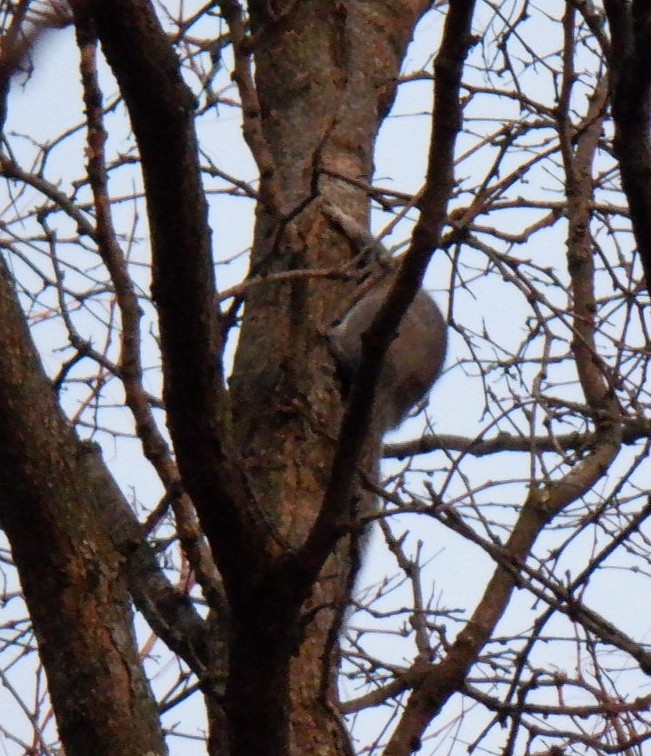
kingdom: Animalia
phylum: Chordata
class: Mammalia
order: Rodentia
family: Sciuridae
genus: Sciurus
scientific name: Sciurus carolinensis
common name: Eastern gray squirrel
